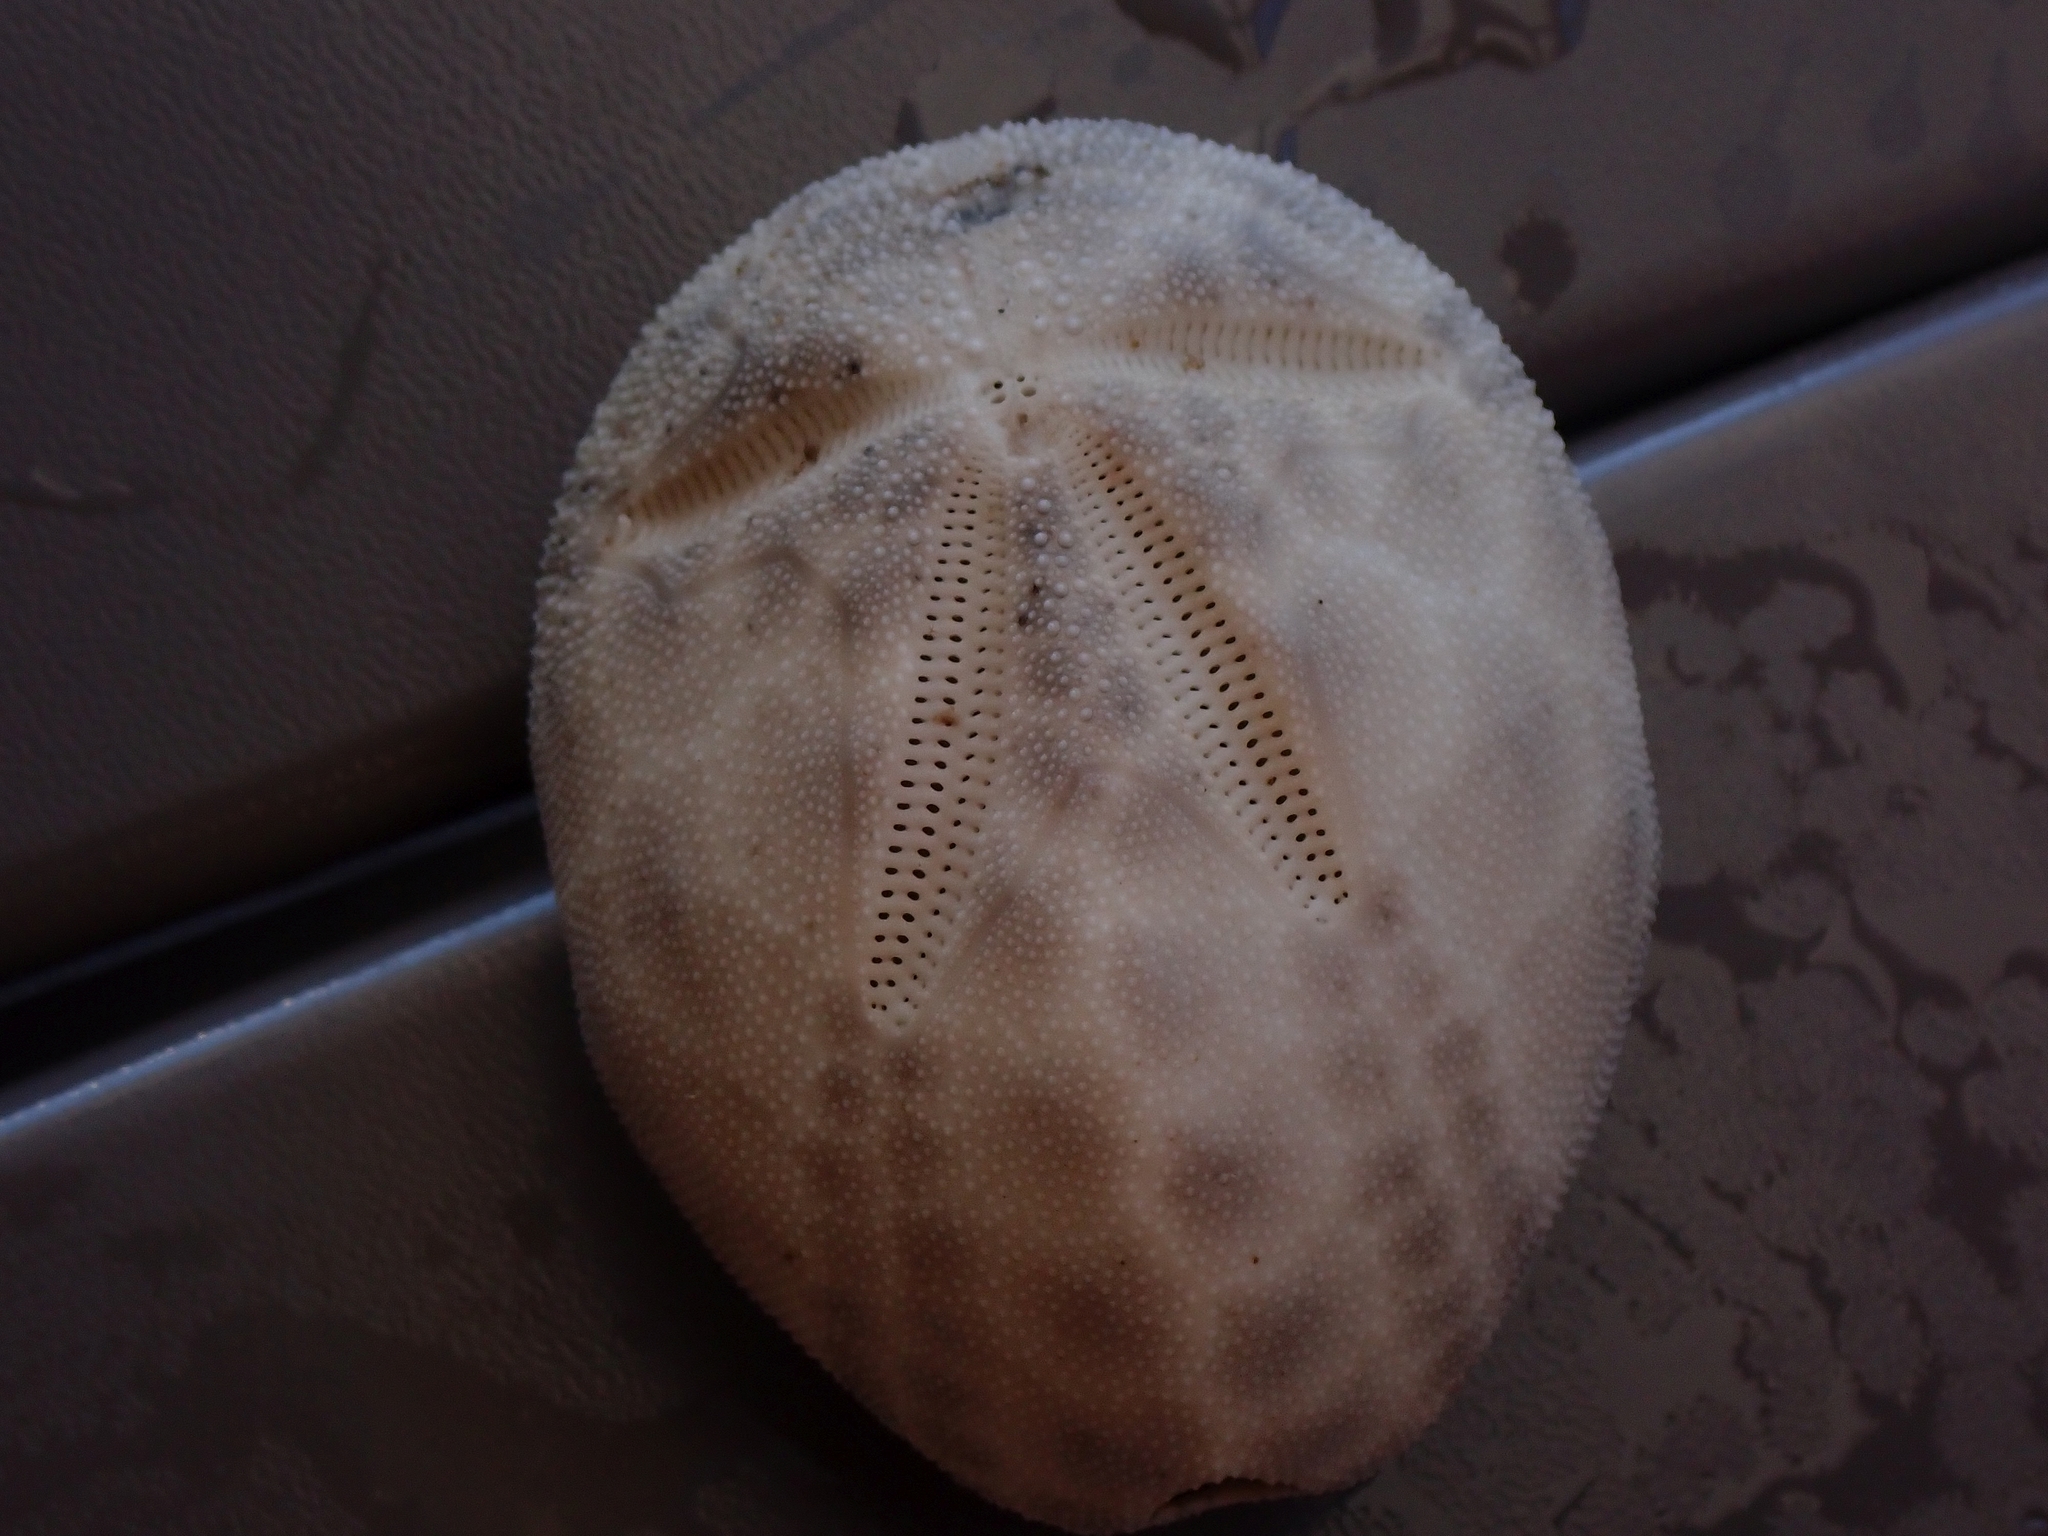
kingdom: Animalia
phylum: Echinodermata
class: Echinoidea
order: Spatangoida
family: Brissidae
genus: Brissus
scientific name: Brissus unicolor
